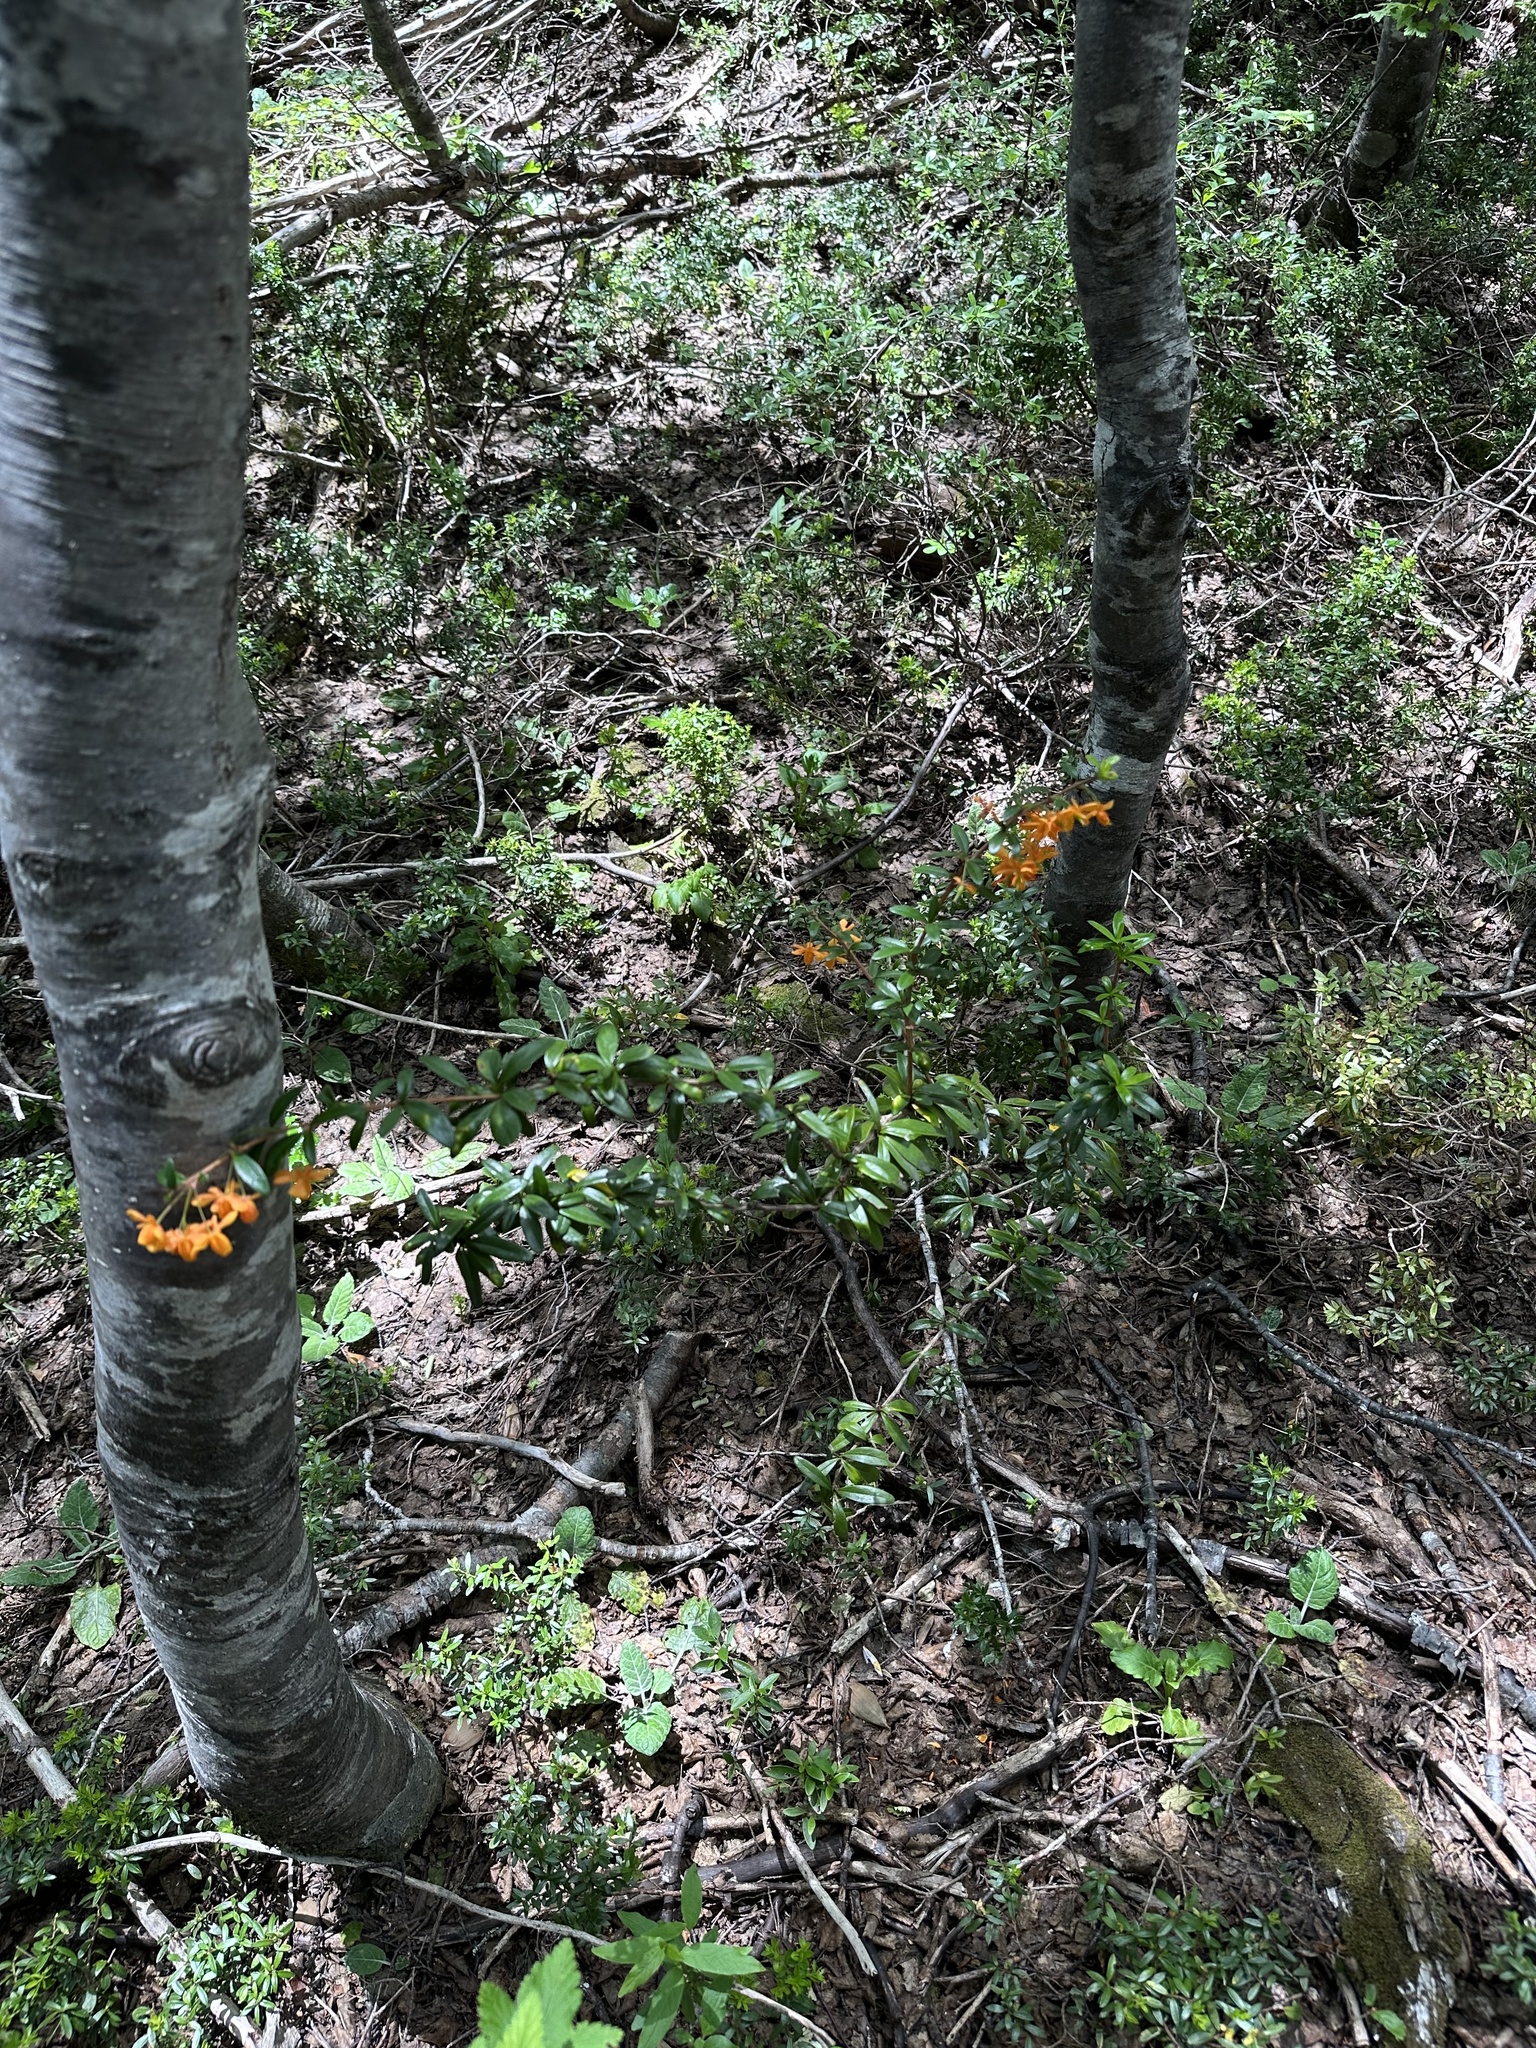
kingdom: Plantae
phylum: Tracheophyta
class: Magnoliopsida
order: Ranunculales
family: Berberidaceae
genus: Berberis
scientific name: Berberis trigona
